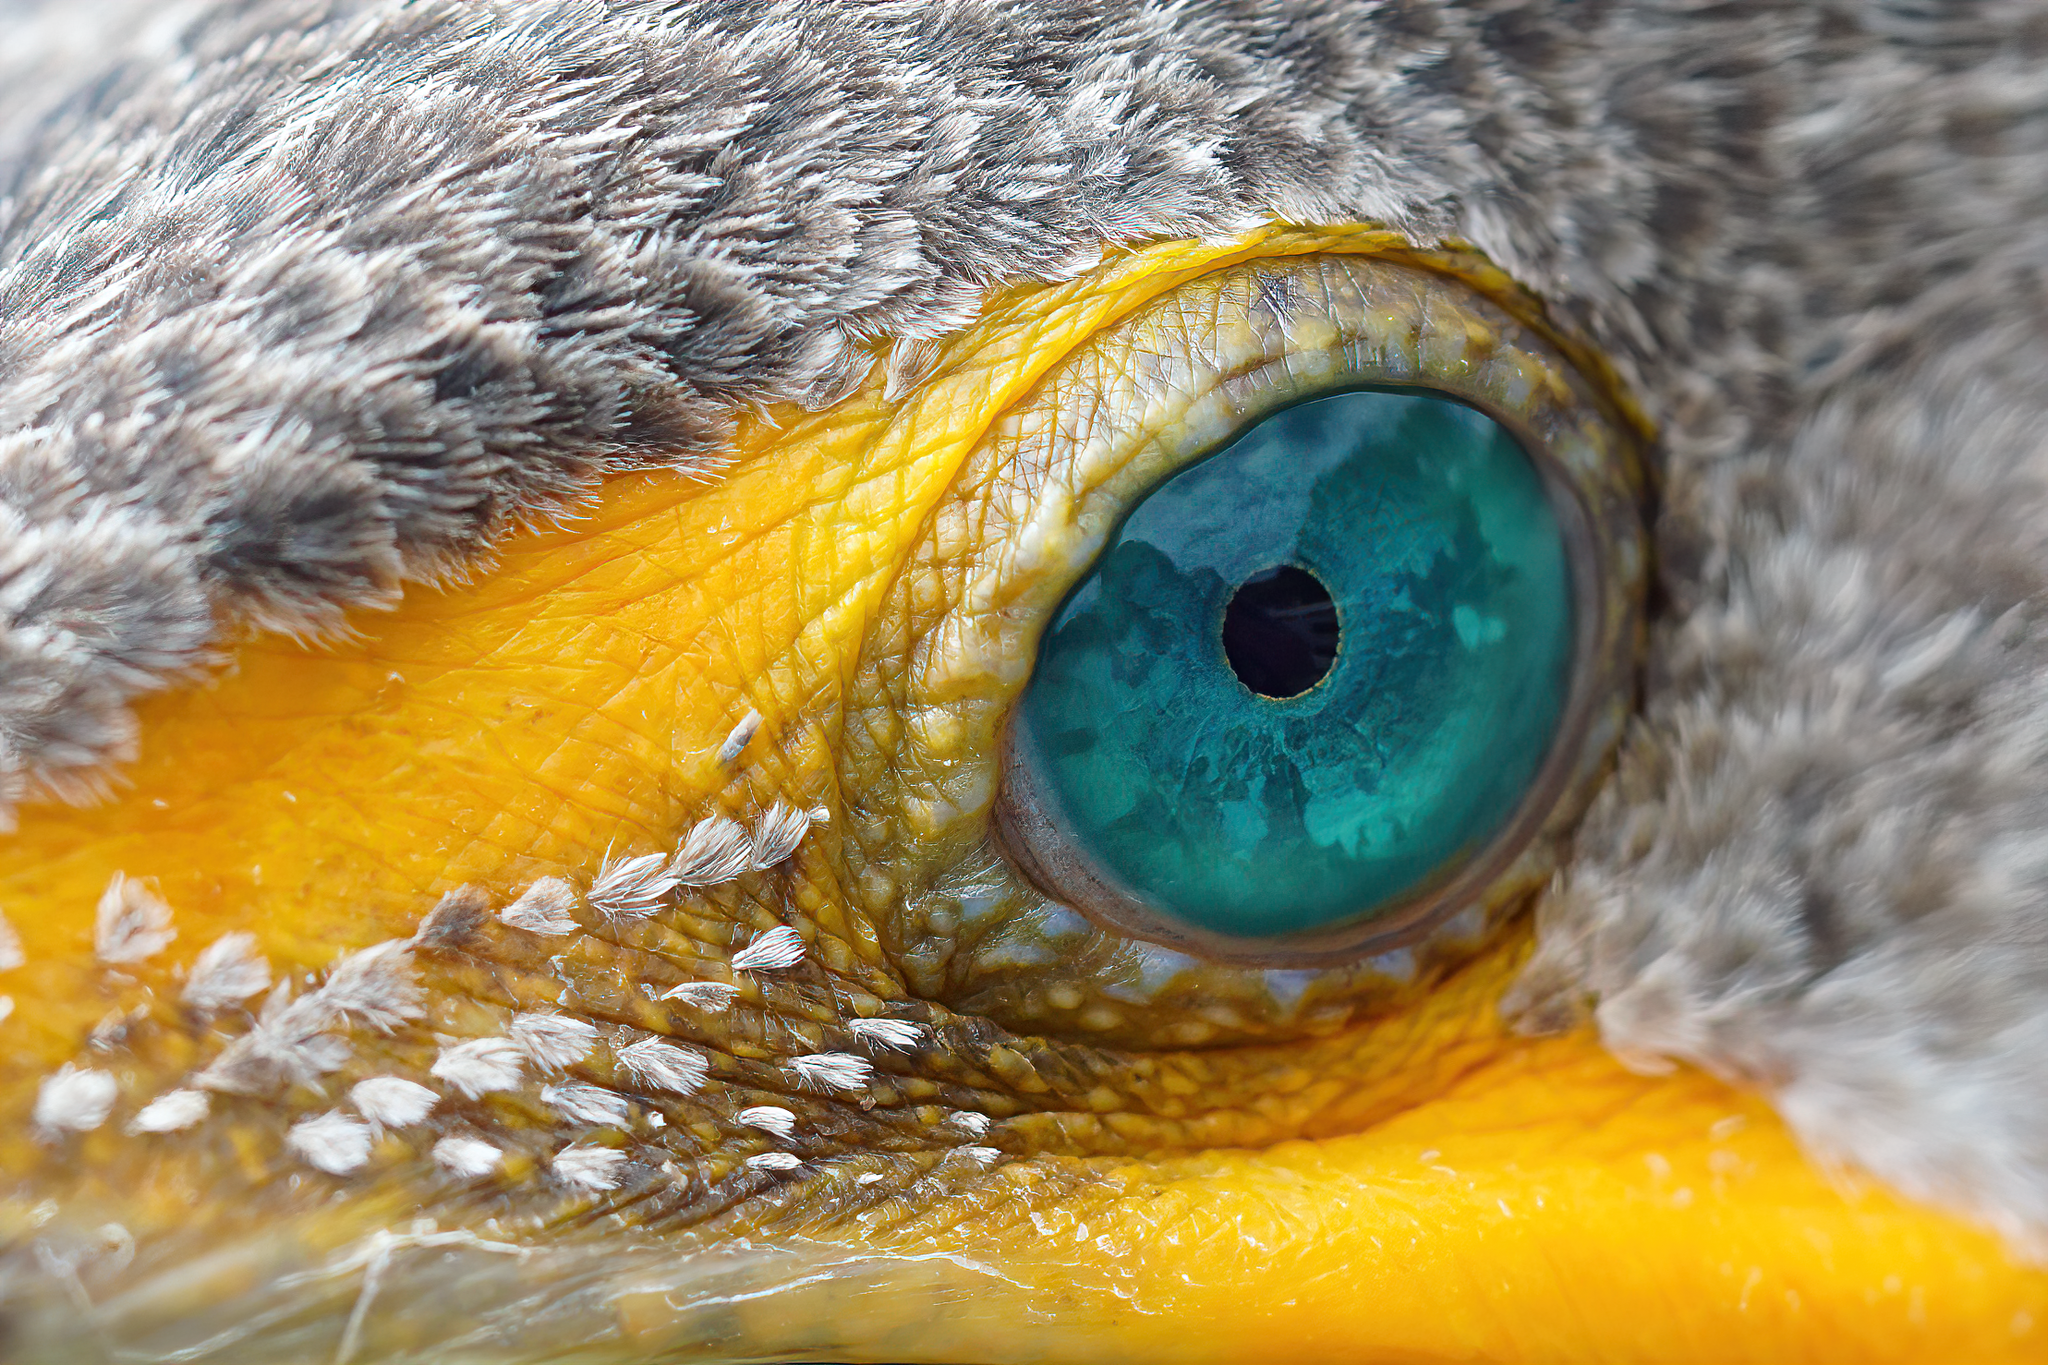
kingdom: Animalia
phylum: Chordata
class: Aves
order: Suliformes
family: Phalacrocoracidae
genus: Phalacrocorax
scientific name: Phalacrocorax auritus
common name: Double-crested cormorant
